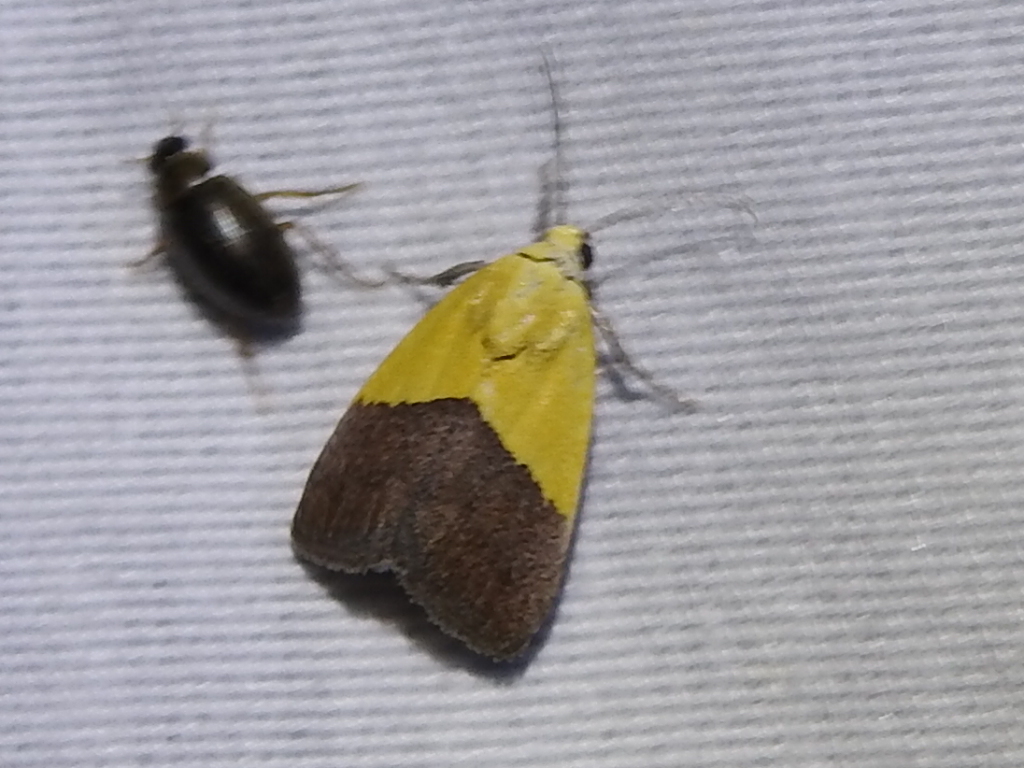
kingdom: Animalia
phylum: Arthropoda
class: Insecta
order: Lepidoptera
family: Noctuidae
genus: Acontia
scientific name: Acontia semiflava
